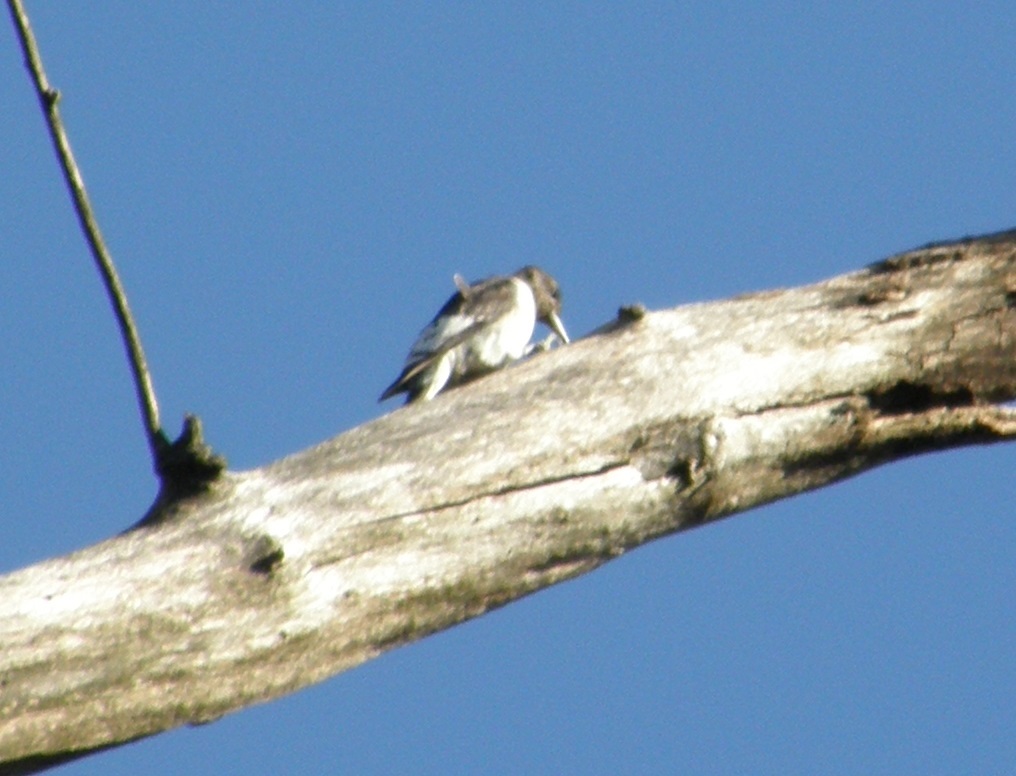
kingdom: Animalia
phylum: Chordata
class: Aves
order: Piciformes
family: Picidae
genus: Melanerpes
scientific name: Melanerpes erythrocephalus
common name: Red-headed woodpecker
